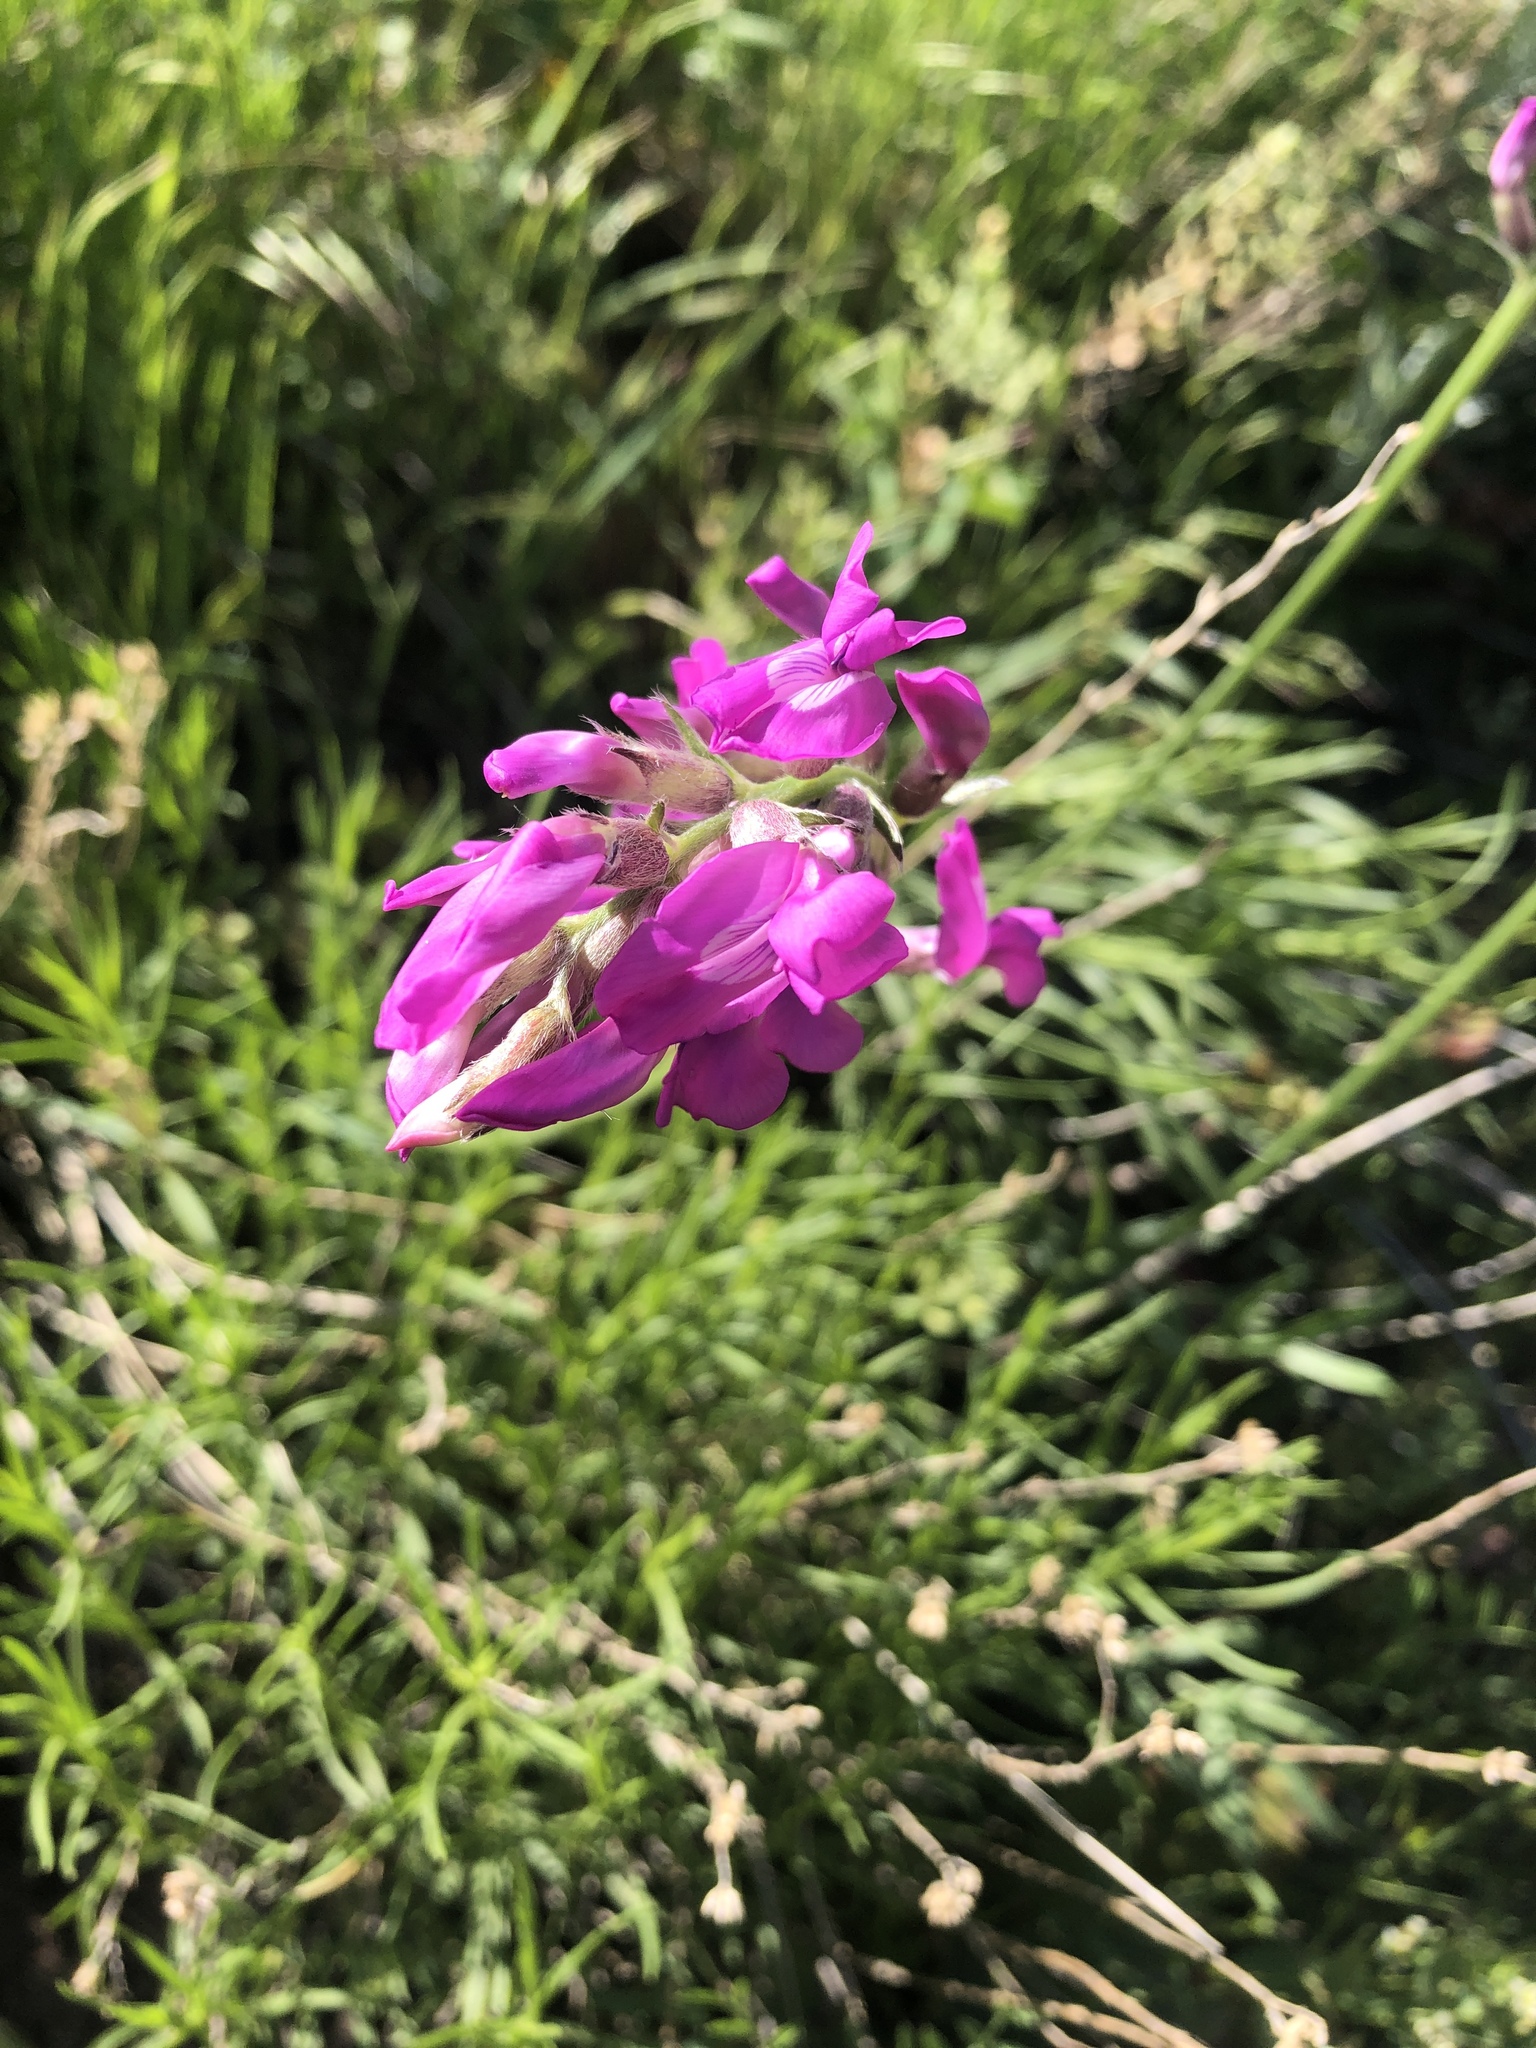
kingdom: Plantae
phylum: Tracheophyta
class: Magnoliopsida
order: Fabales
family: Fabaceae
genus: Oxytropis
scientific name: Oxytropis lambertii
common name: Purple locoweed
